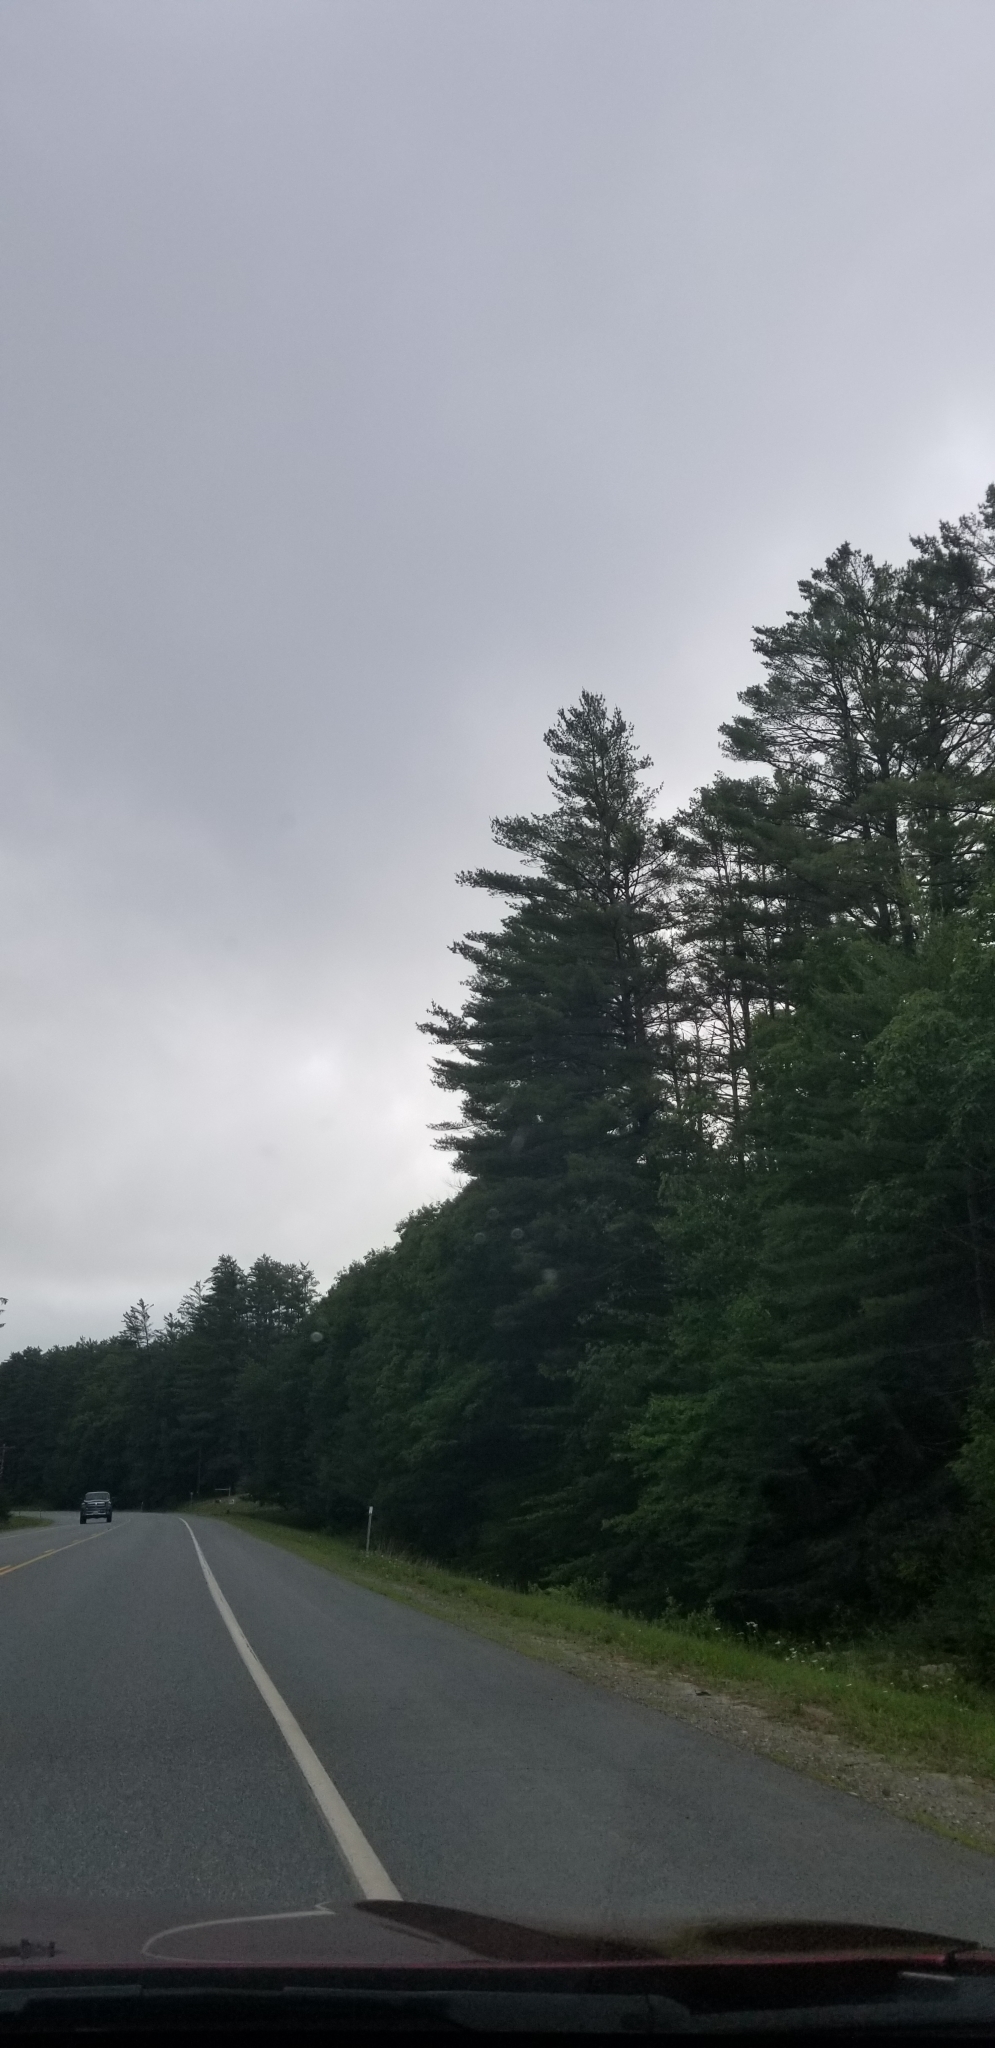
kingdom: Plantae
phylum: Tracheophyta
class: Pinopsida
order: Pinales
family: Pinaceae
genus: Pinus
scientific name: Pinus strobus
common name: Weymouth pine
